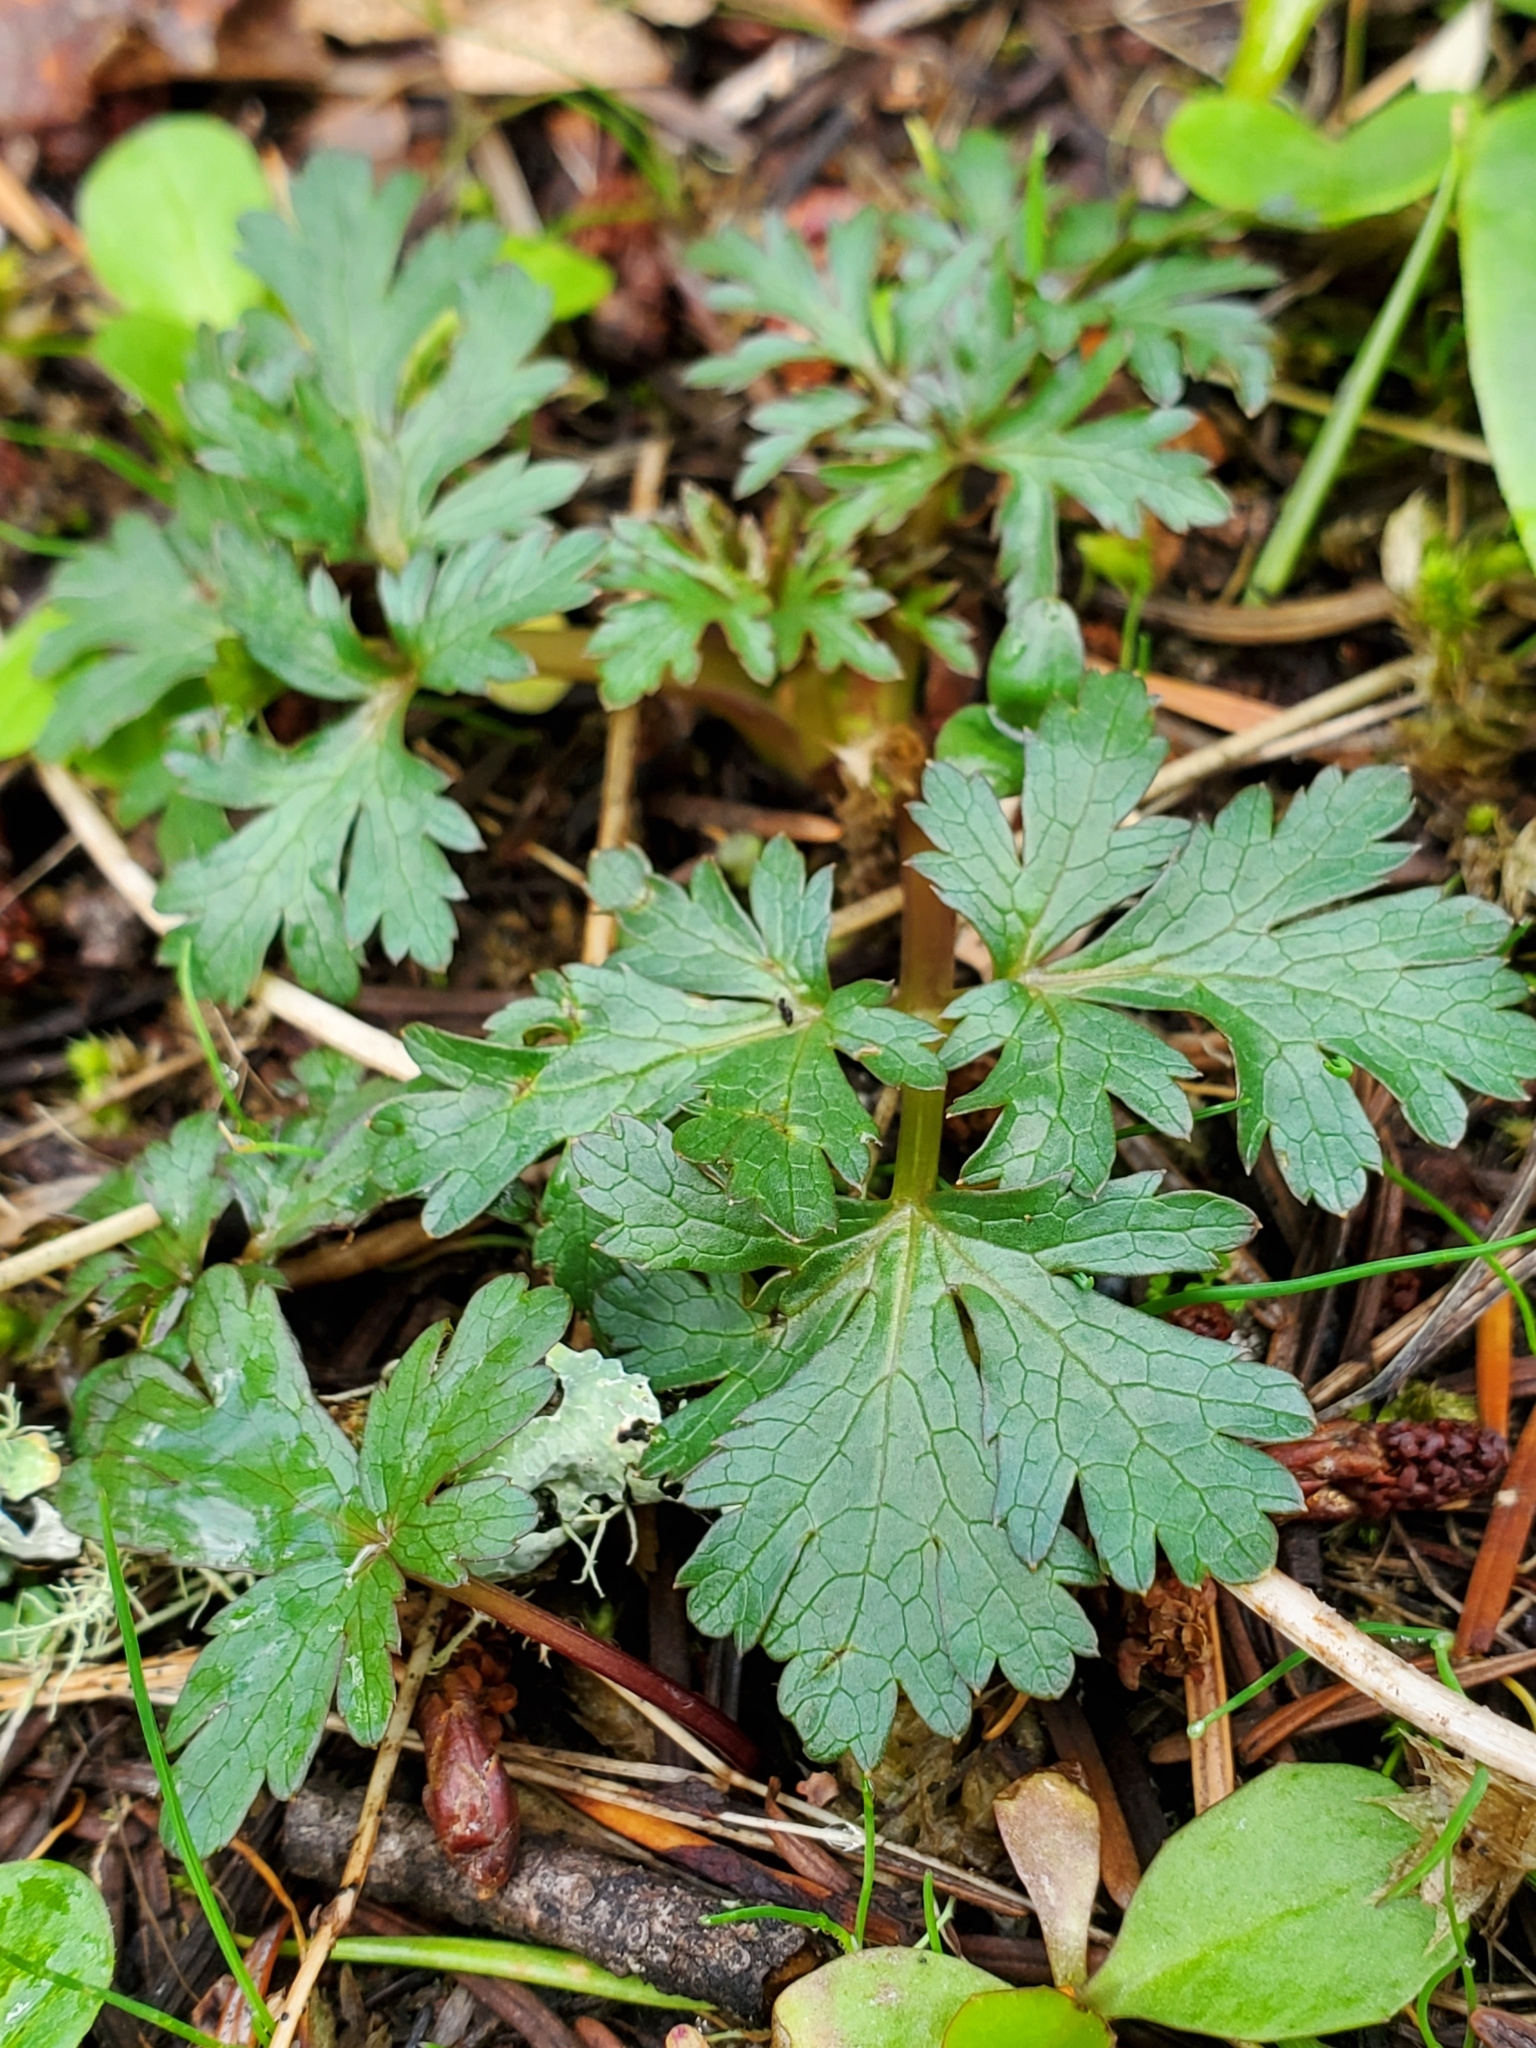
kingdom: Plantae
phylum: Tracheophyta
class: Magnoliopsida
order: Apiales
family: Apiaceae
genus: Sanicula
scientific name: Sanicula graveolens
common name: Sierra sanicle
